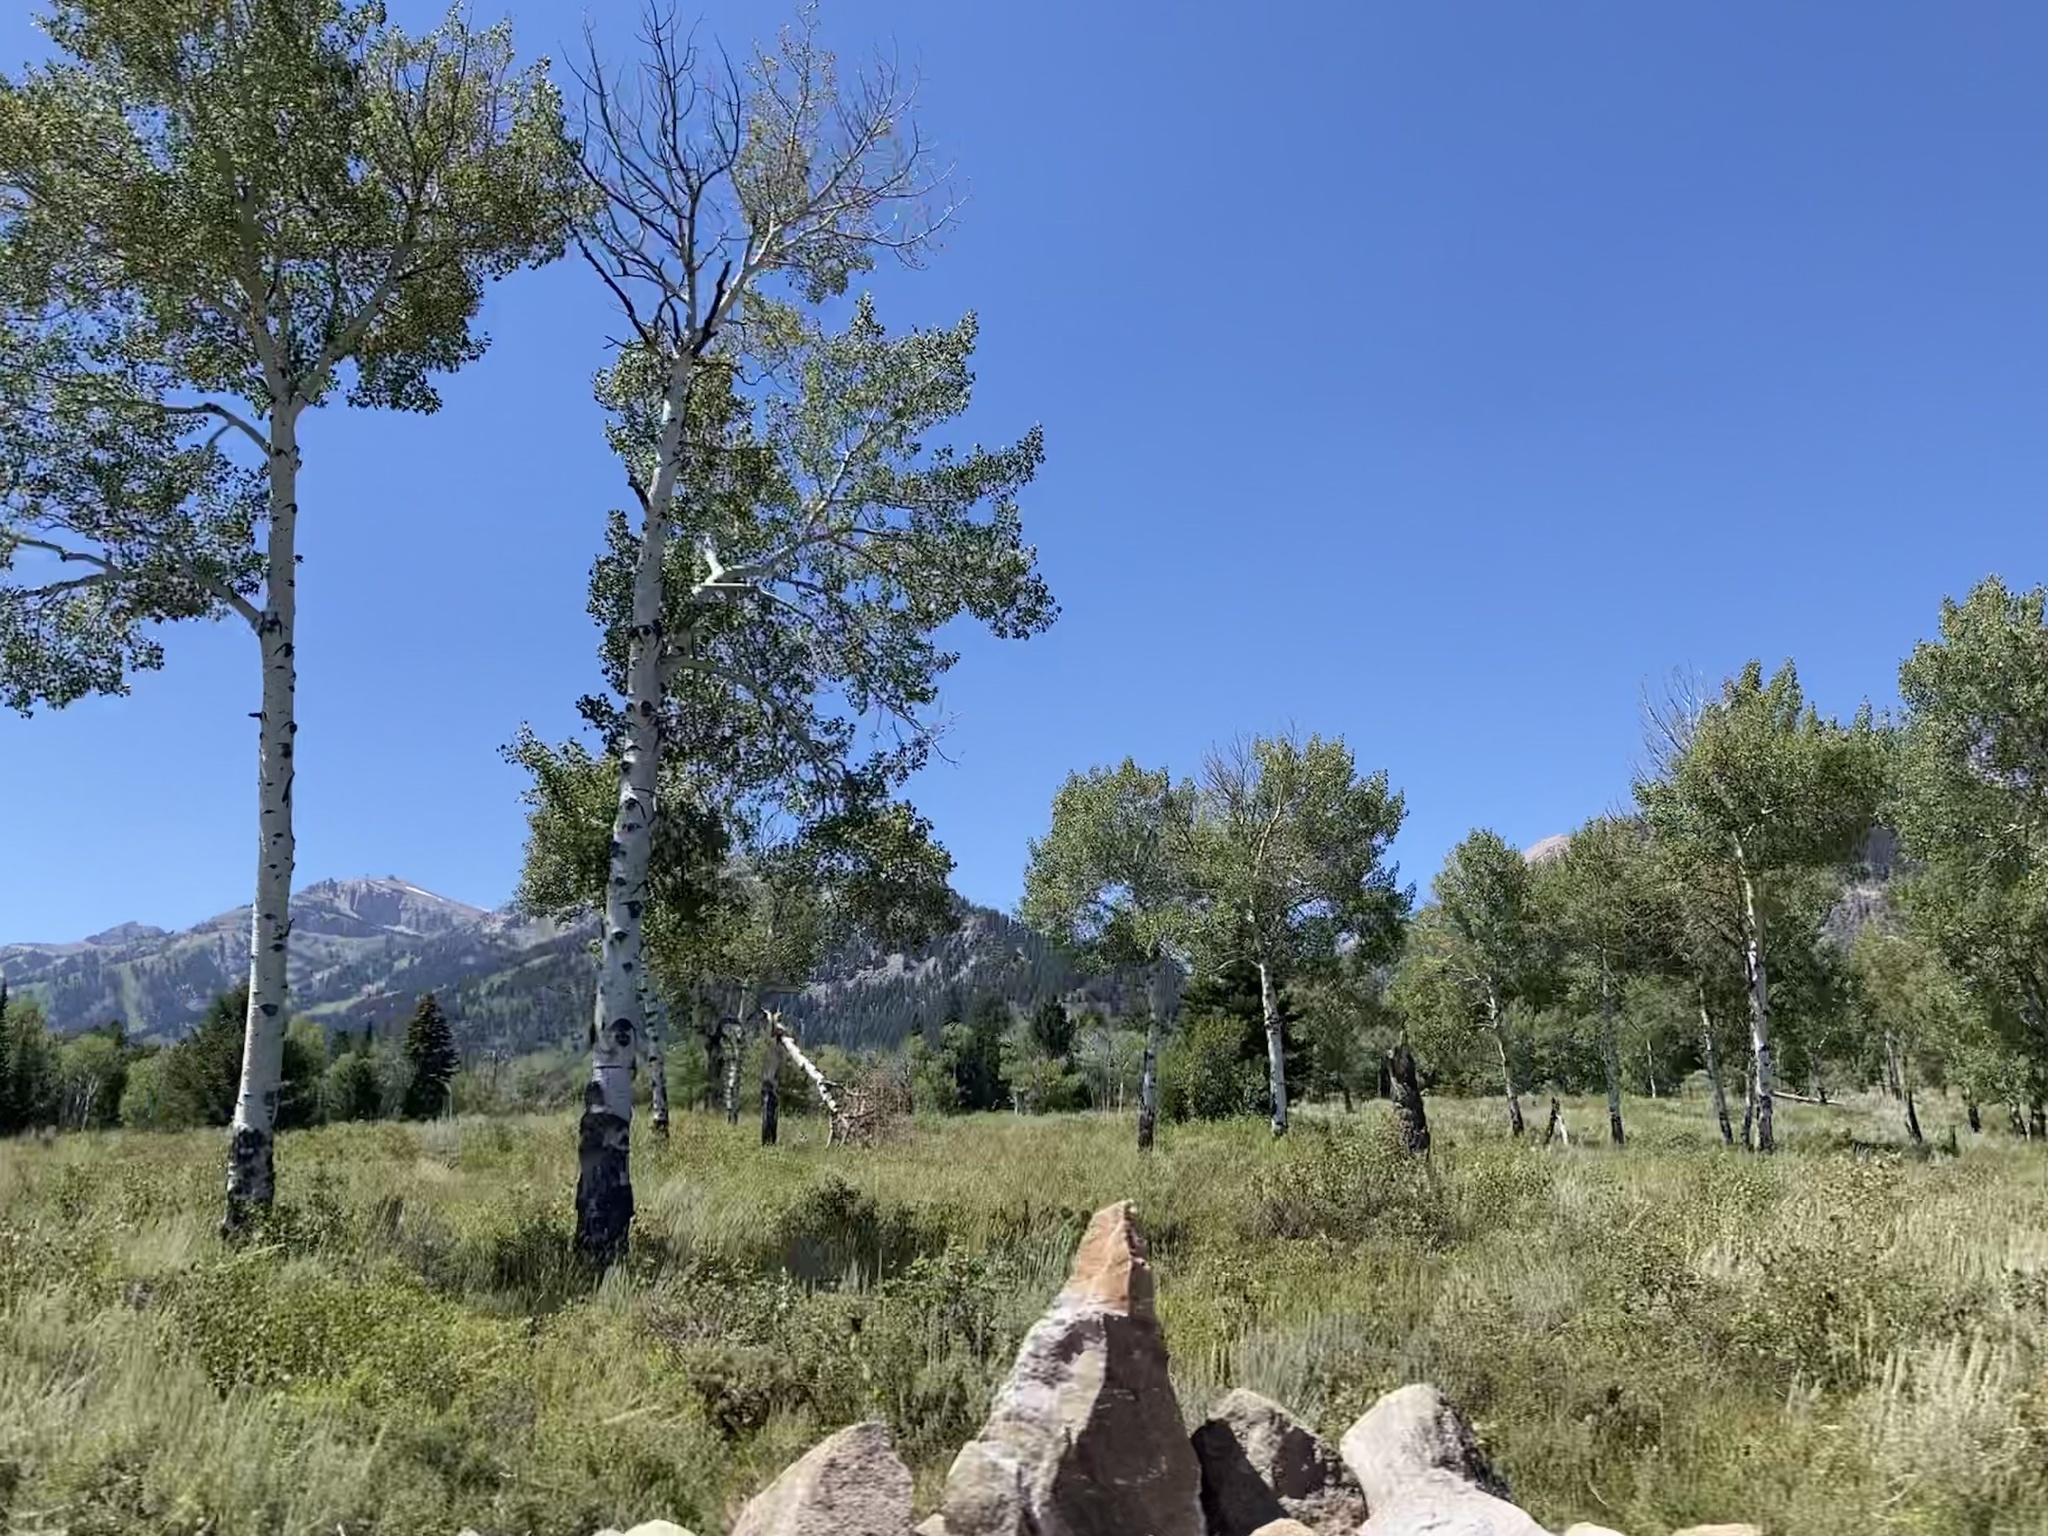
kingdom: Plantae
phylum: Tracheophyta
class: Magnoliopsida
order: Malpighiales
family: Salicaceae
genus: Populus
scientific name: Populus tremuloides
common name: Quaking aspen
